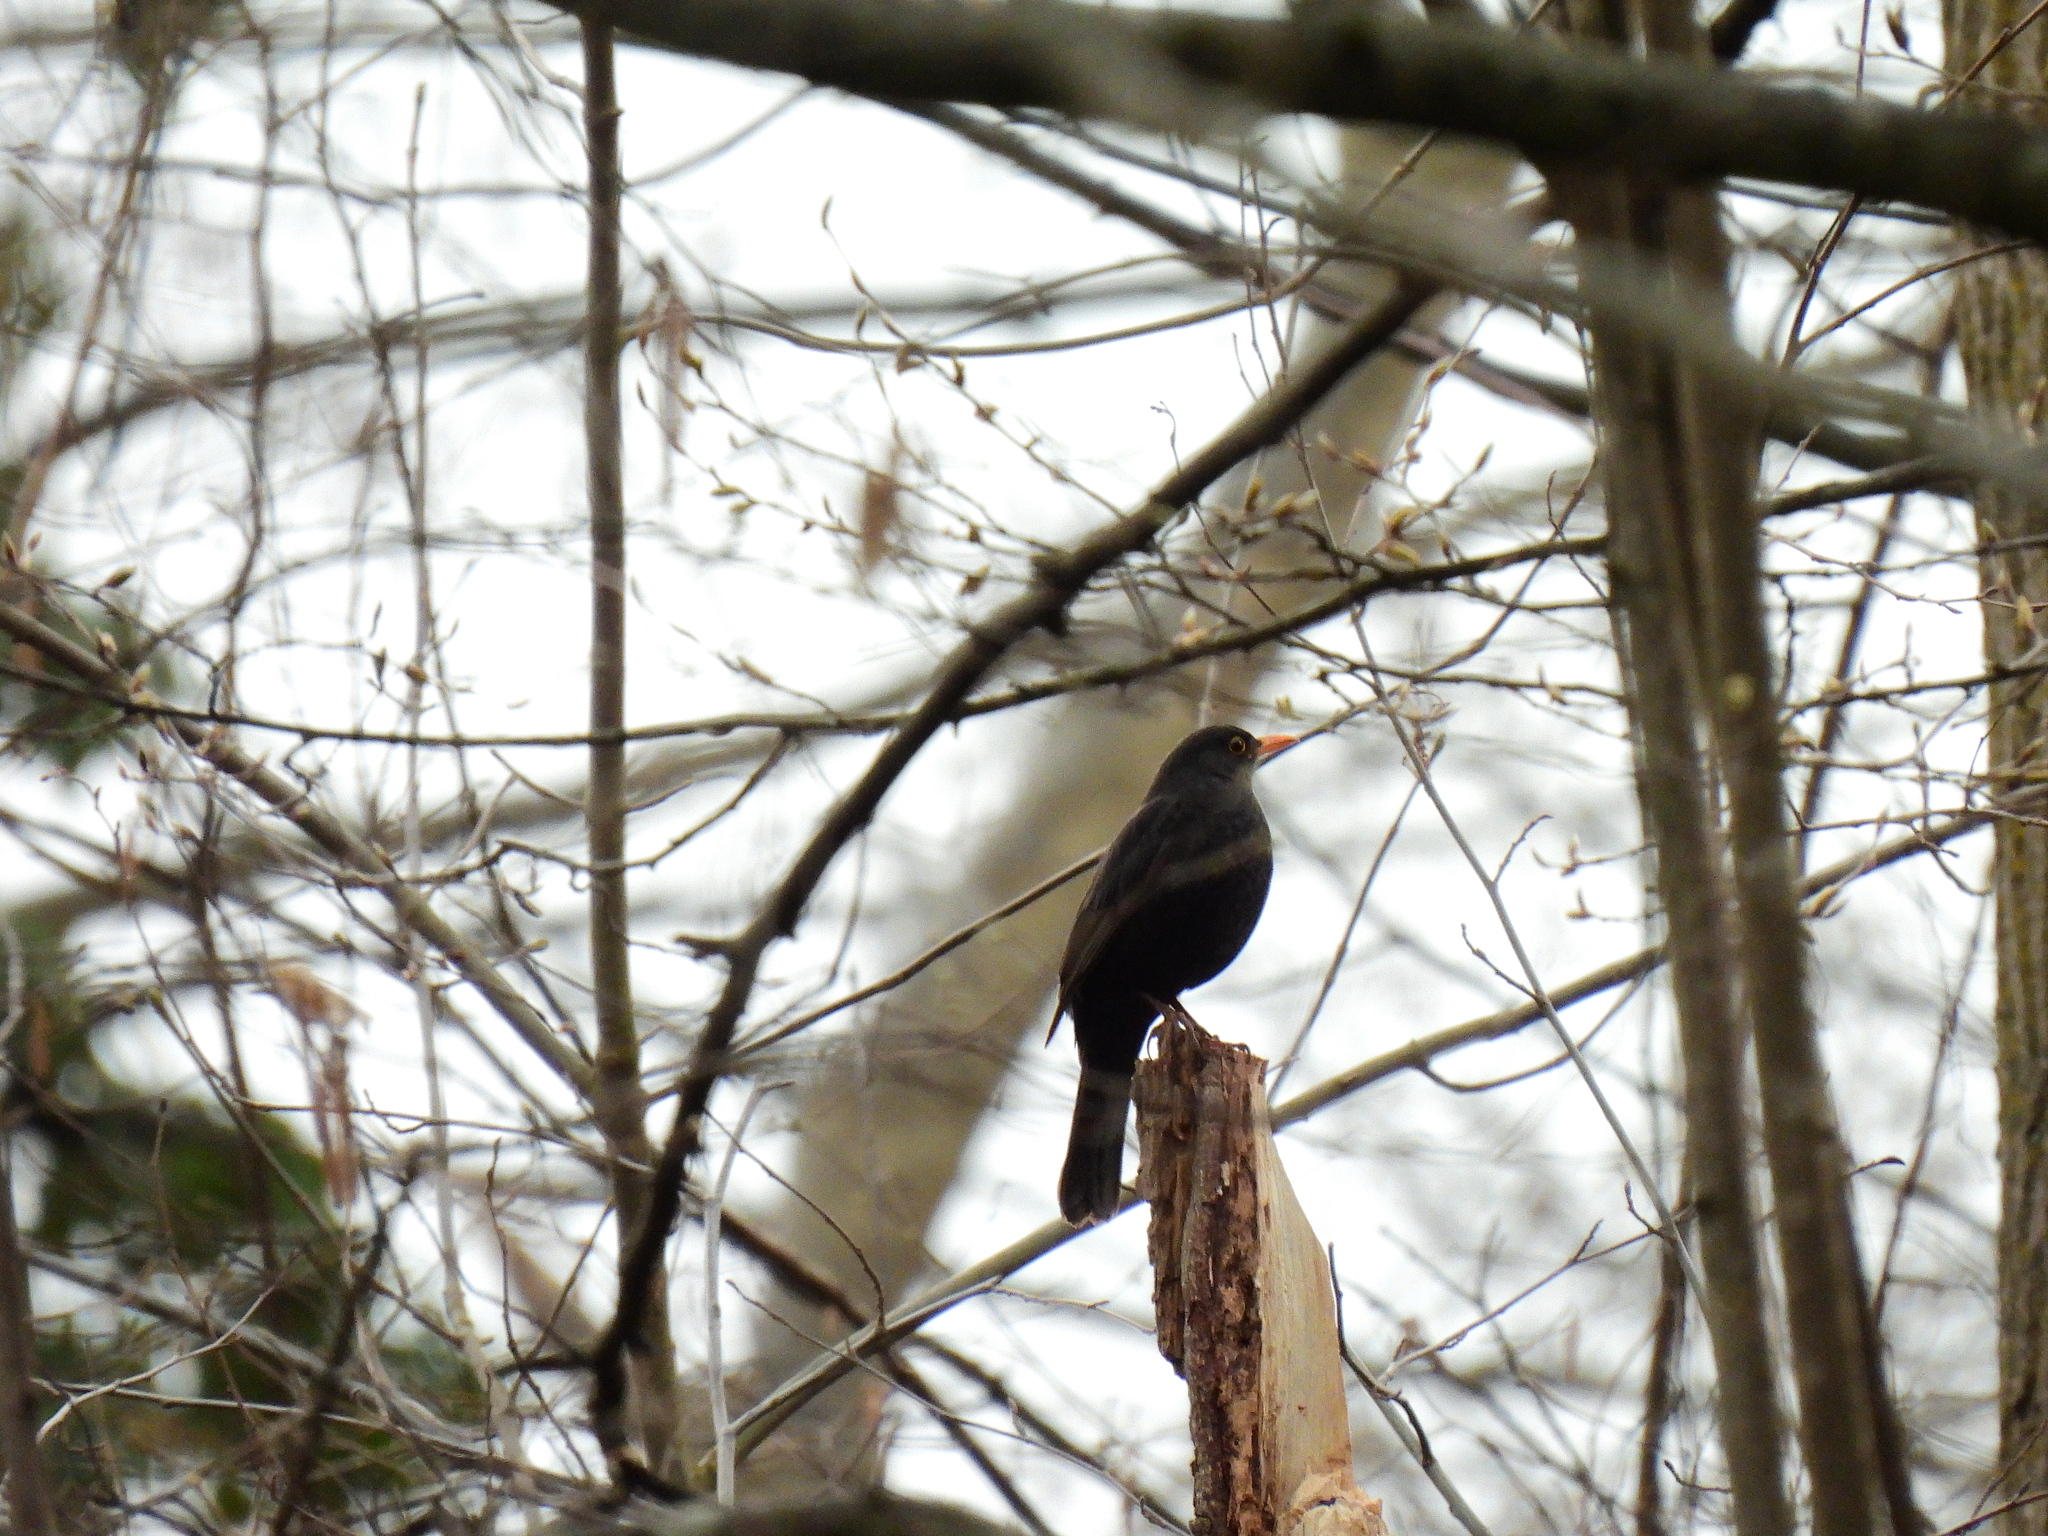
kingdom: Animalia
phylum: Chordata
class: Aves
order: Passeriformes
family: Turdidae
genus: Turdus
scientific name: Turdus merula
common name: Common blackbird
